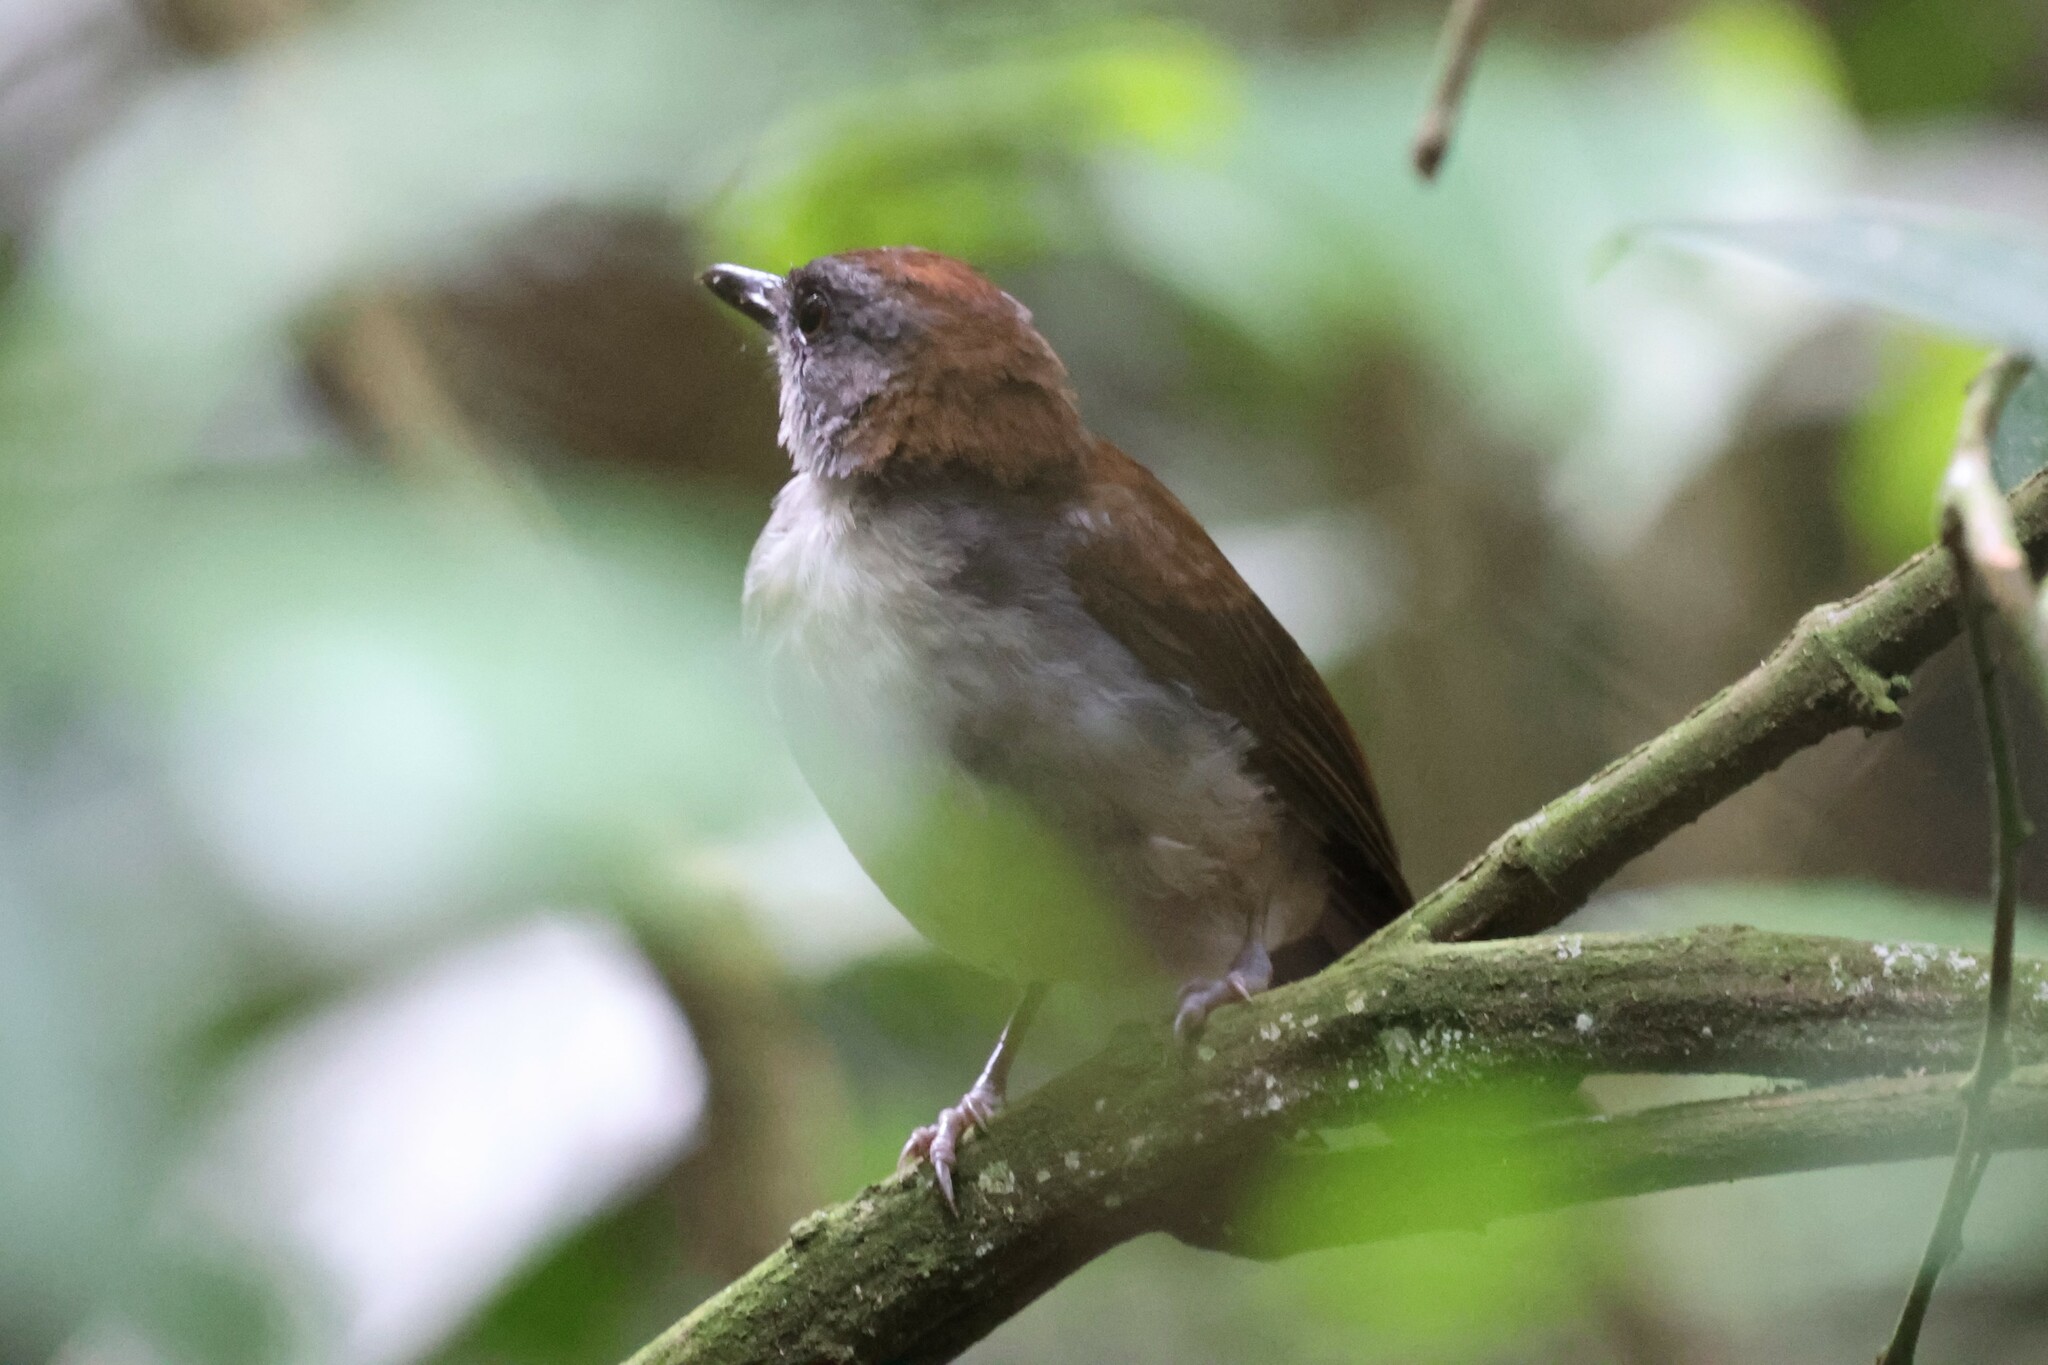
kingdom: Animalia
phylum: Chordata
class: Aves
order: Passeriformes
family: Turdidae
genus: Alethe
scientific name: Alethe castanea
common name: Fire-crested alethe
